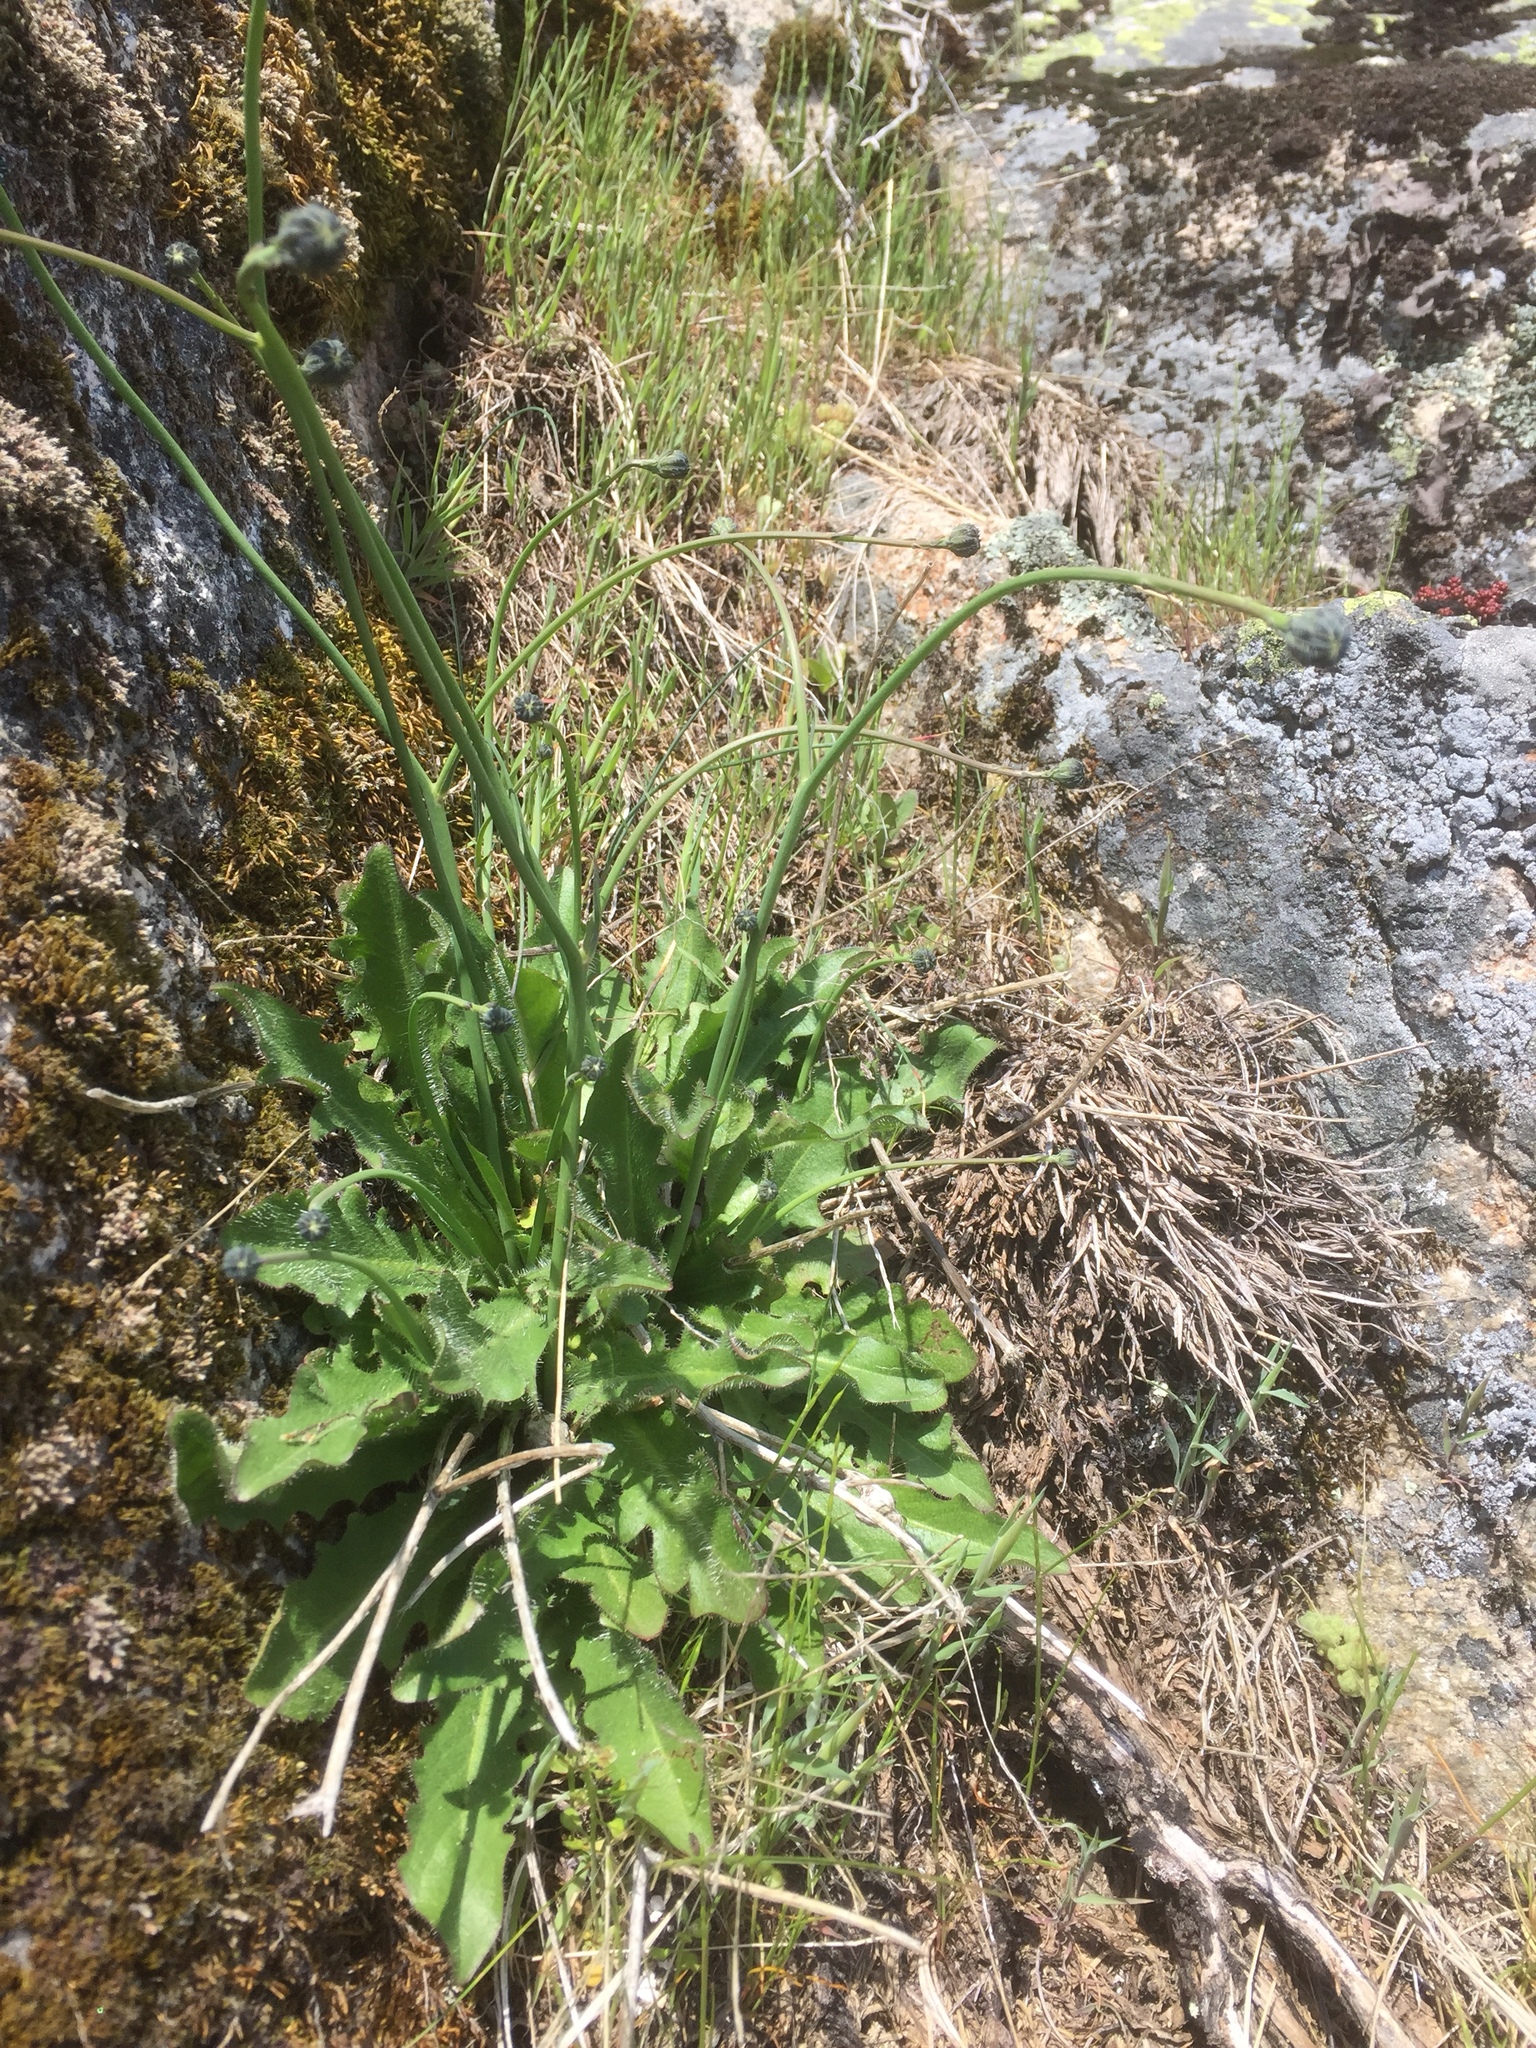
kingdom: Plantae
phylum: Tracheophyta
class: Magnoliopsida
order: Asterales
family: Asteraceae
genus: Hypochaeris
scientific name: Hypochaeris radicata
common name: Flatweed
